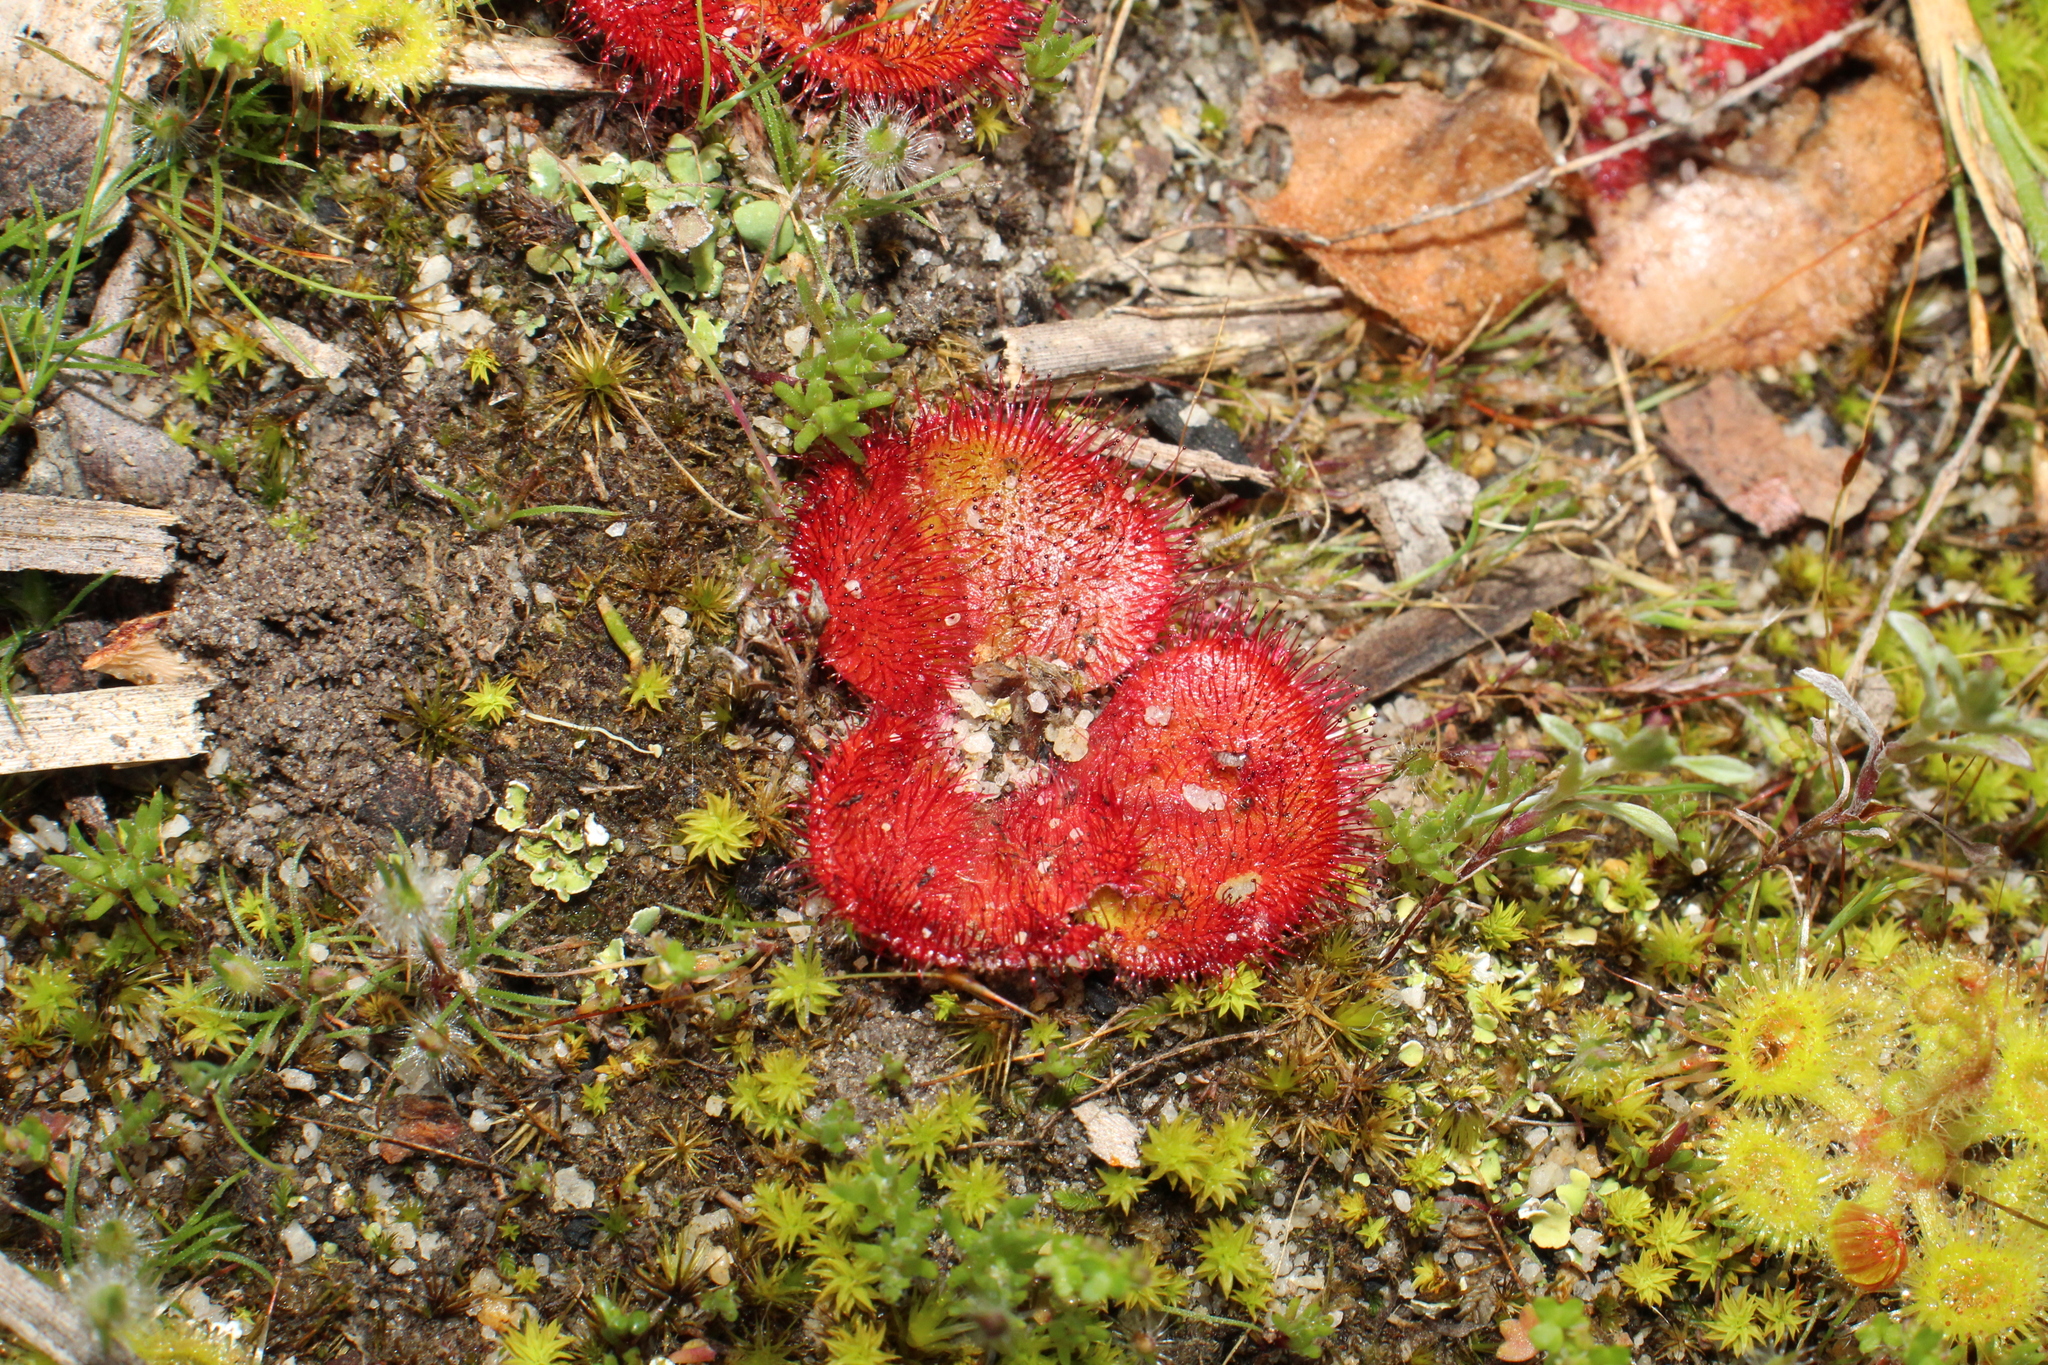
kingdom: Plantae
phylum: Tracheophyta
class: Magnoliopsida
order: Caryophyllales
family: Droseraceae
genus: Drosera
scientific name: Drosera erythrorhiza
